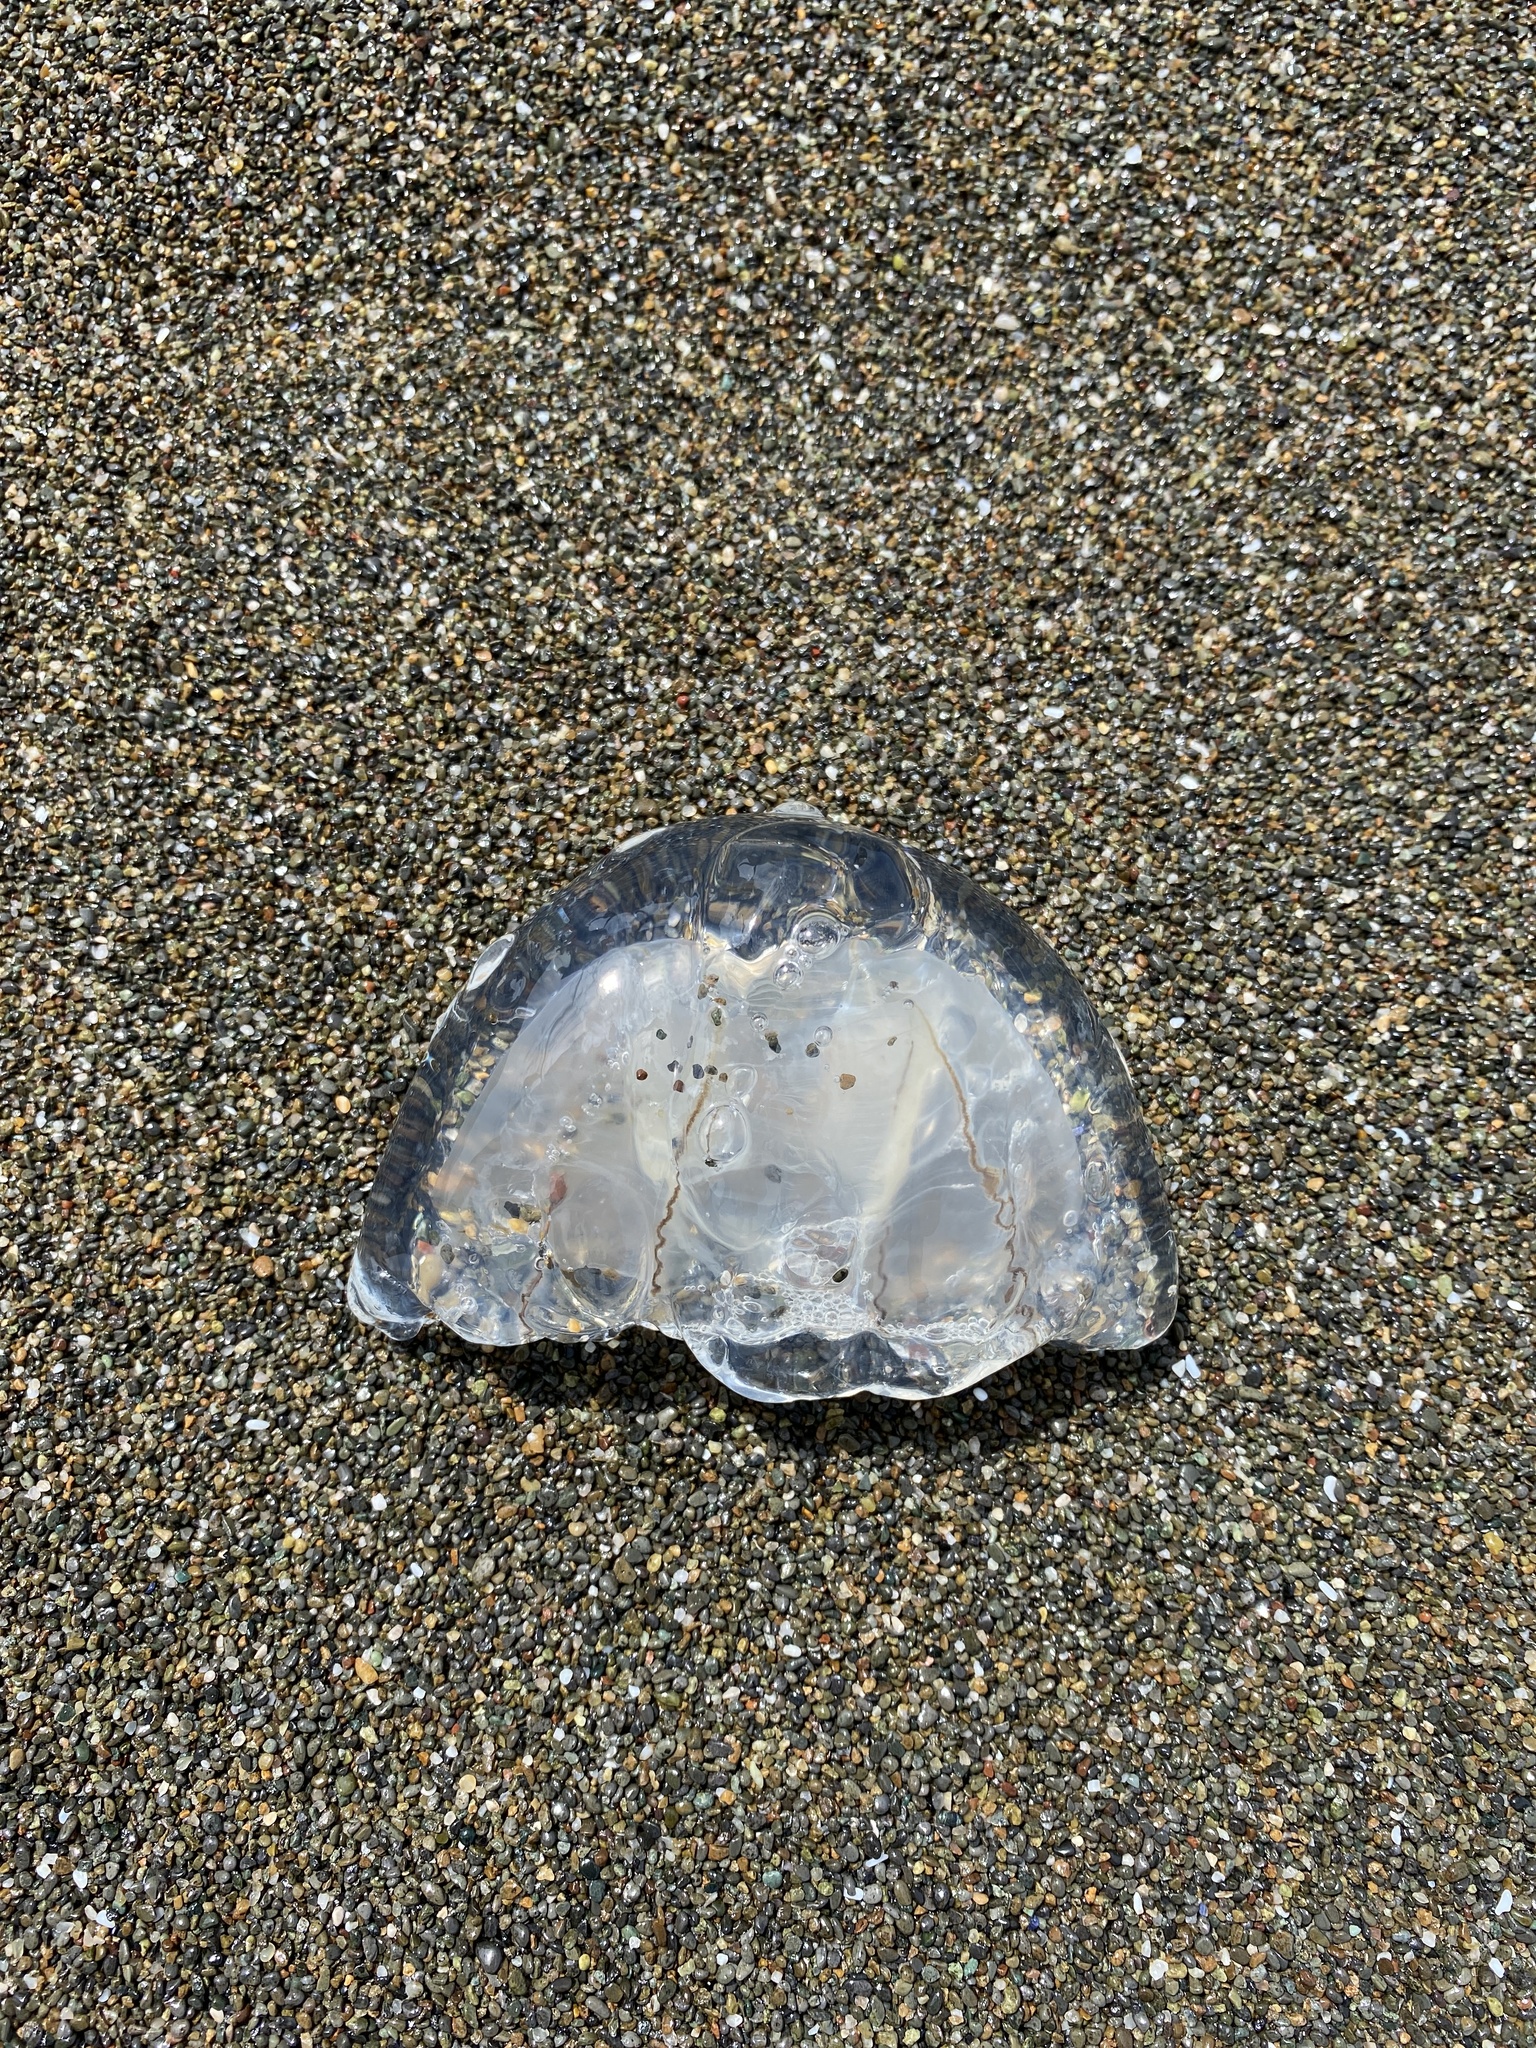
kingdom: Animalia
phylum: Cnidaria
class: Hydrozoa
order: Anthoathecata
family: Corynidae
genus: Scrippsia
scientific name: Scrippsia pacifica
